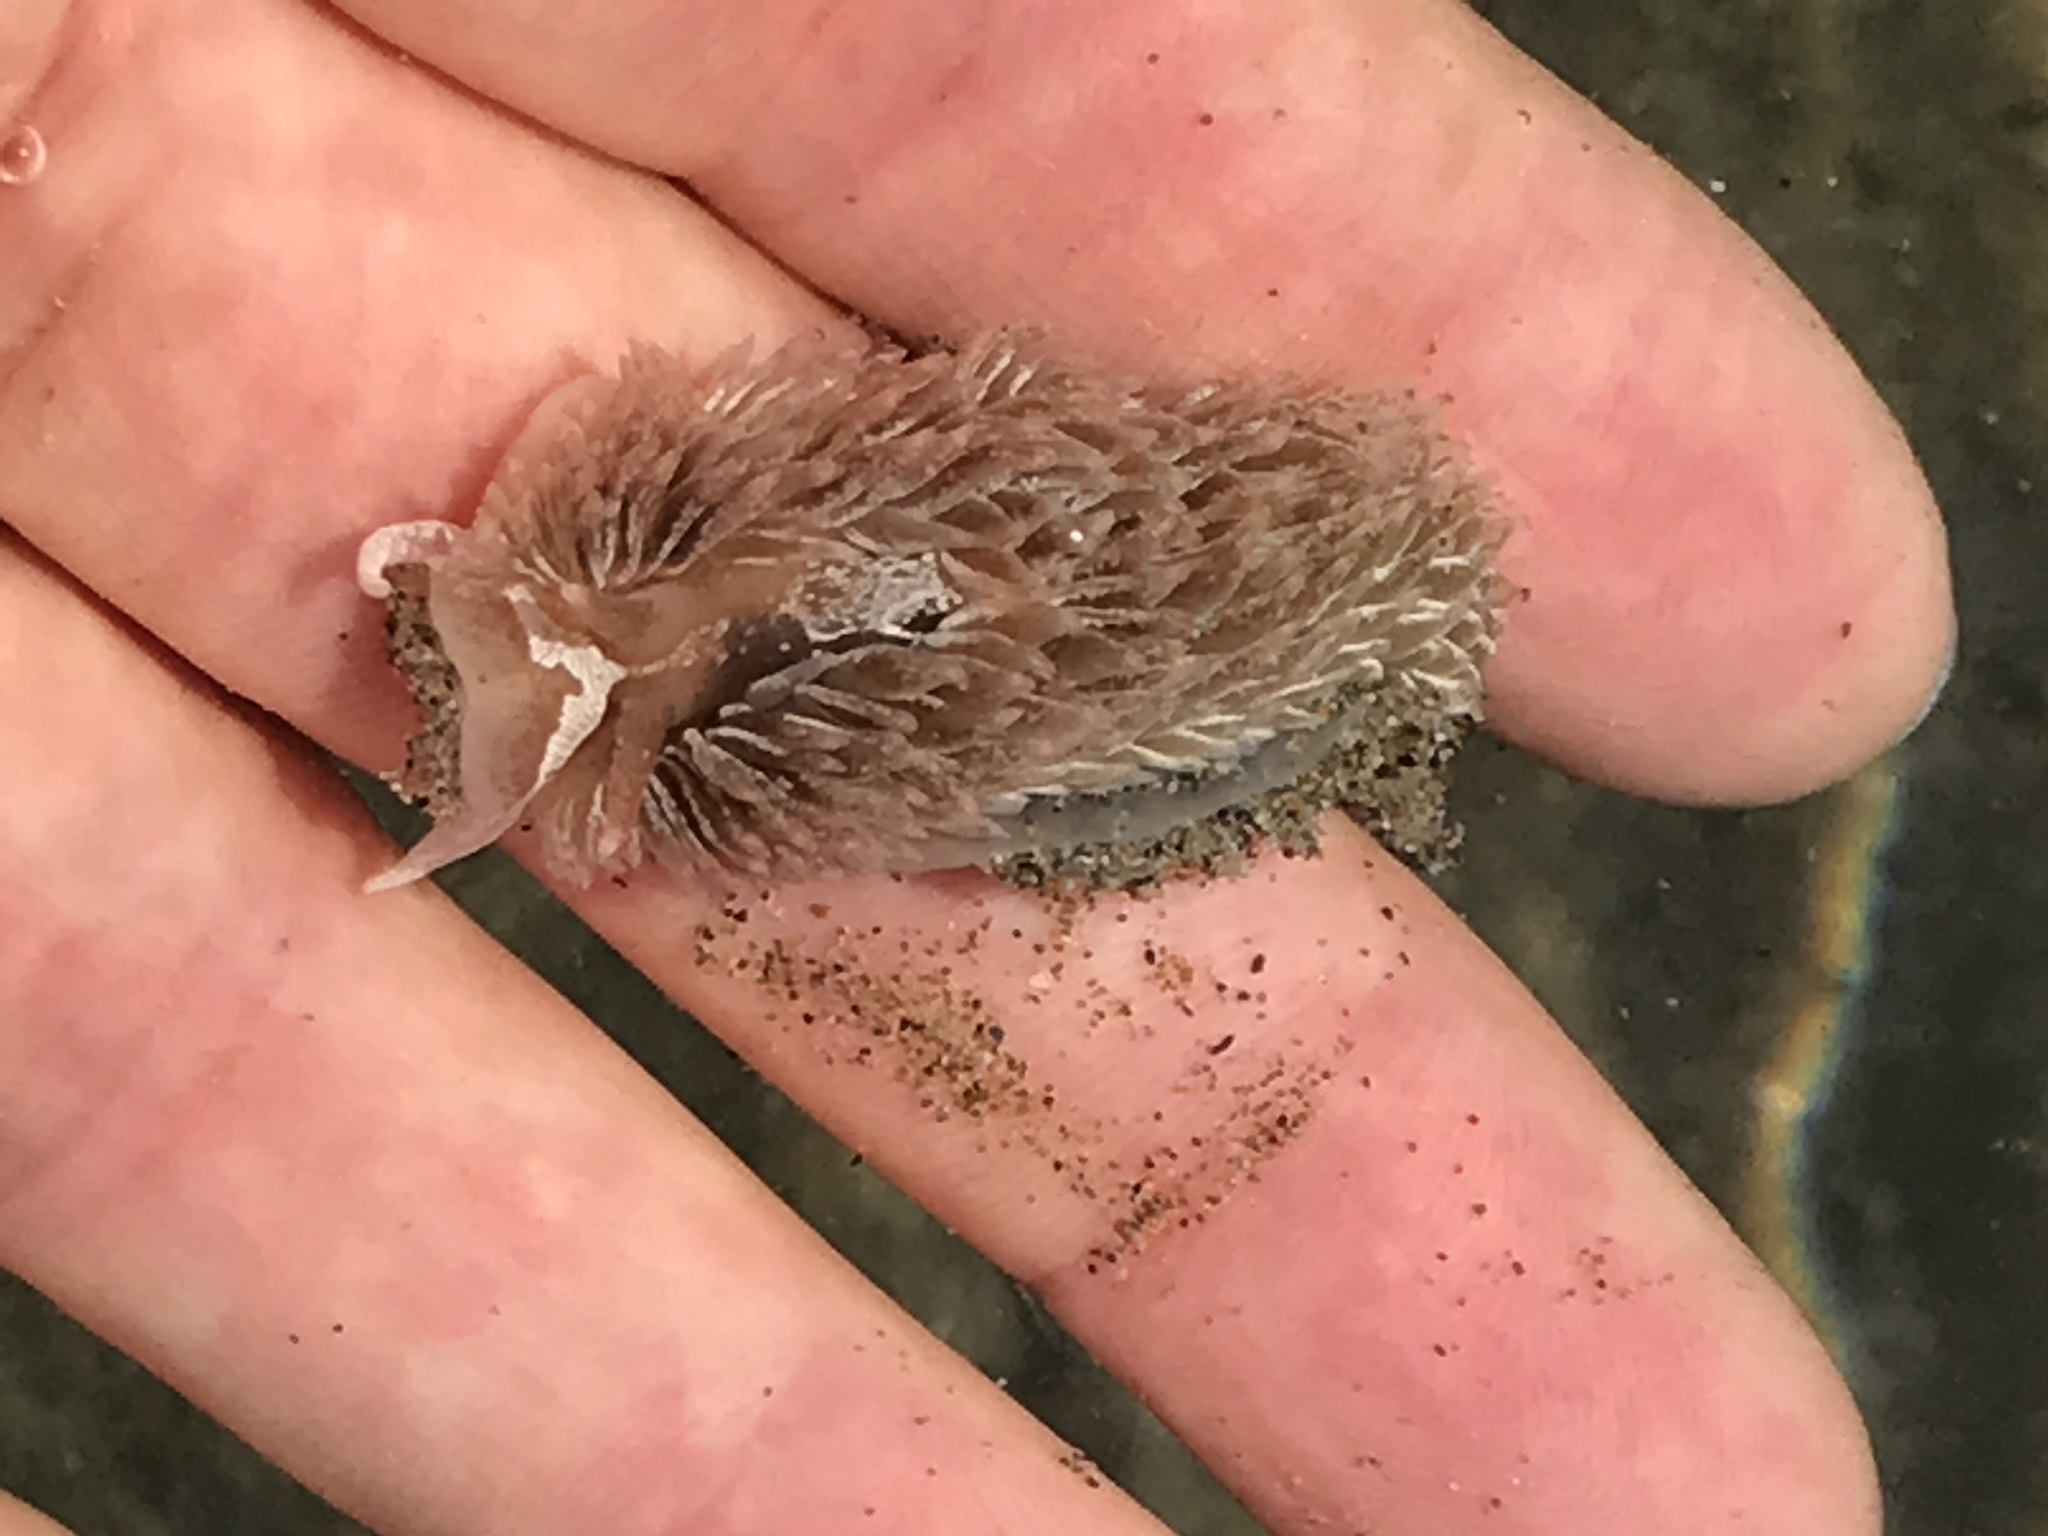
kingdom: Animalia
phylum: Mollusca
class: Gastropoda
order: Nudibranchia
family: Aeolidiidae
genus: Aeolidia
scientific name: Aeolidia loui
